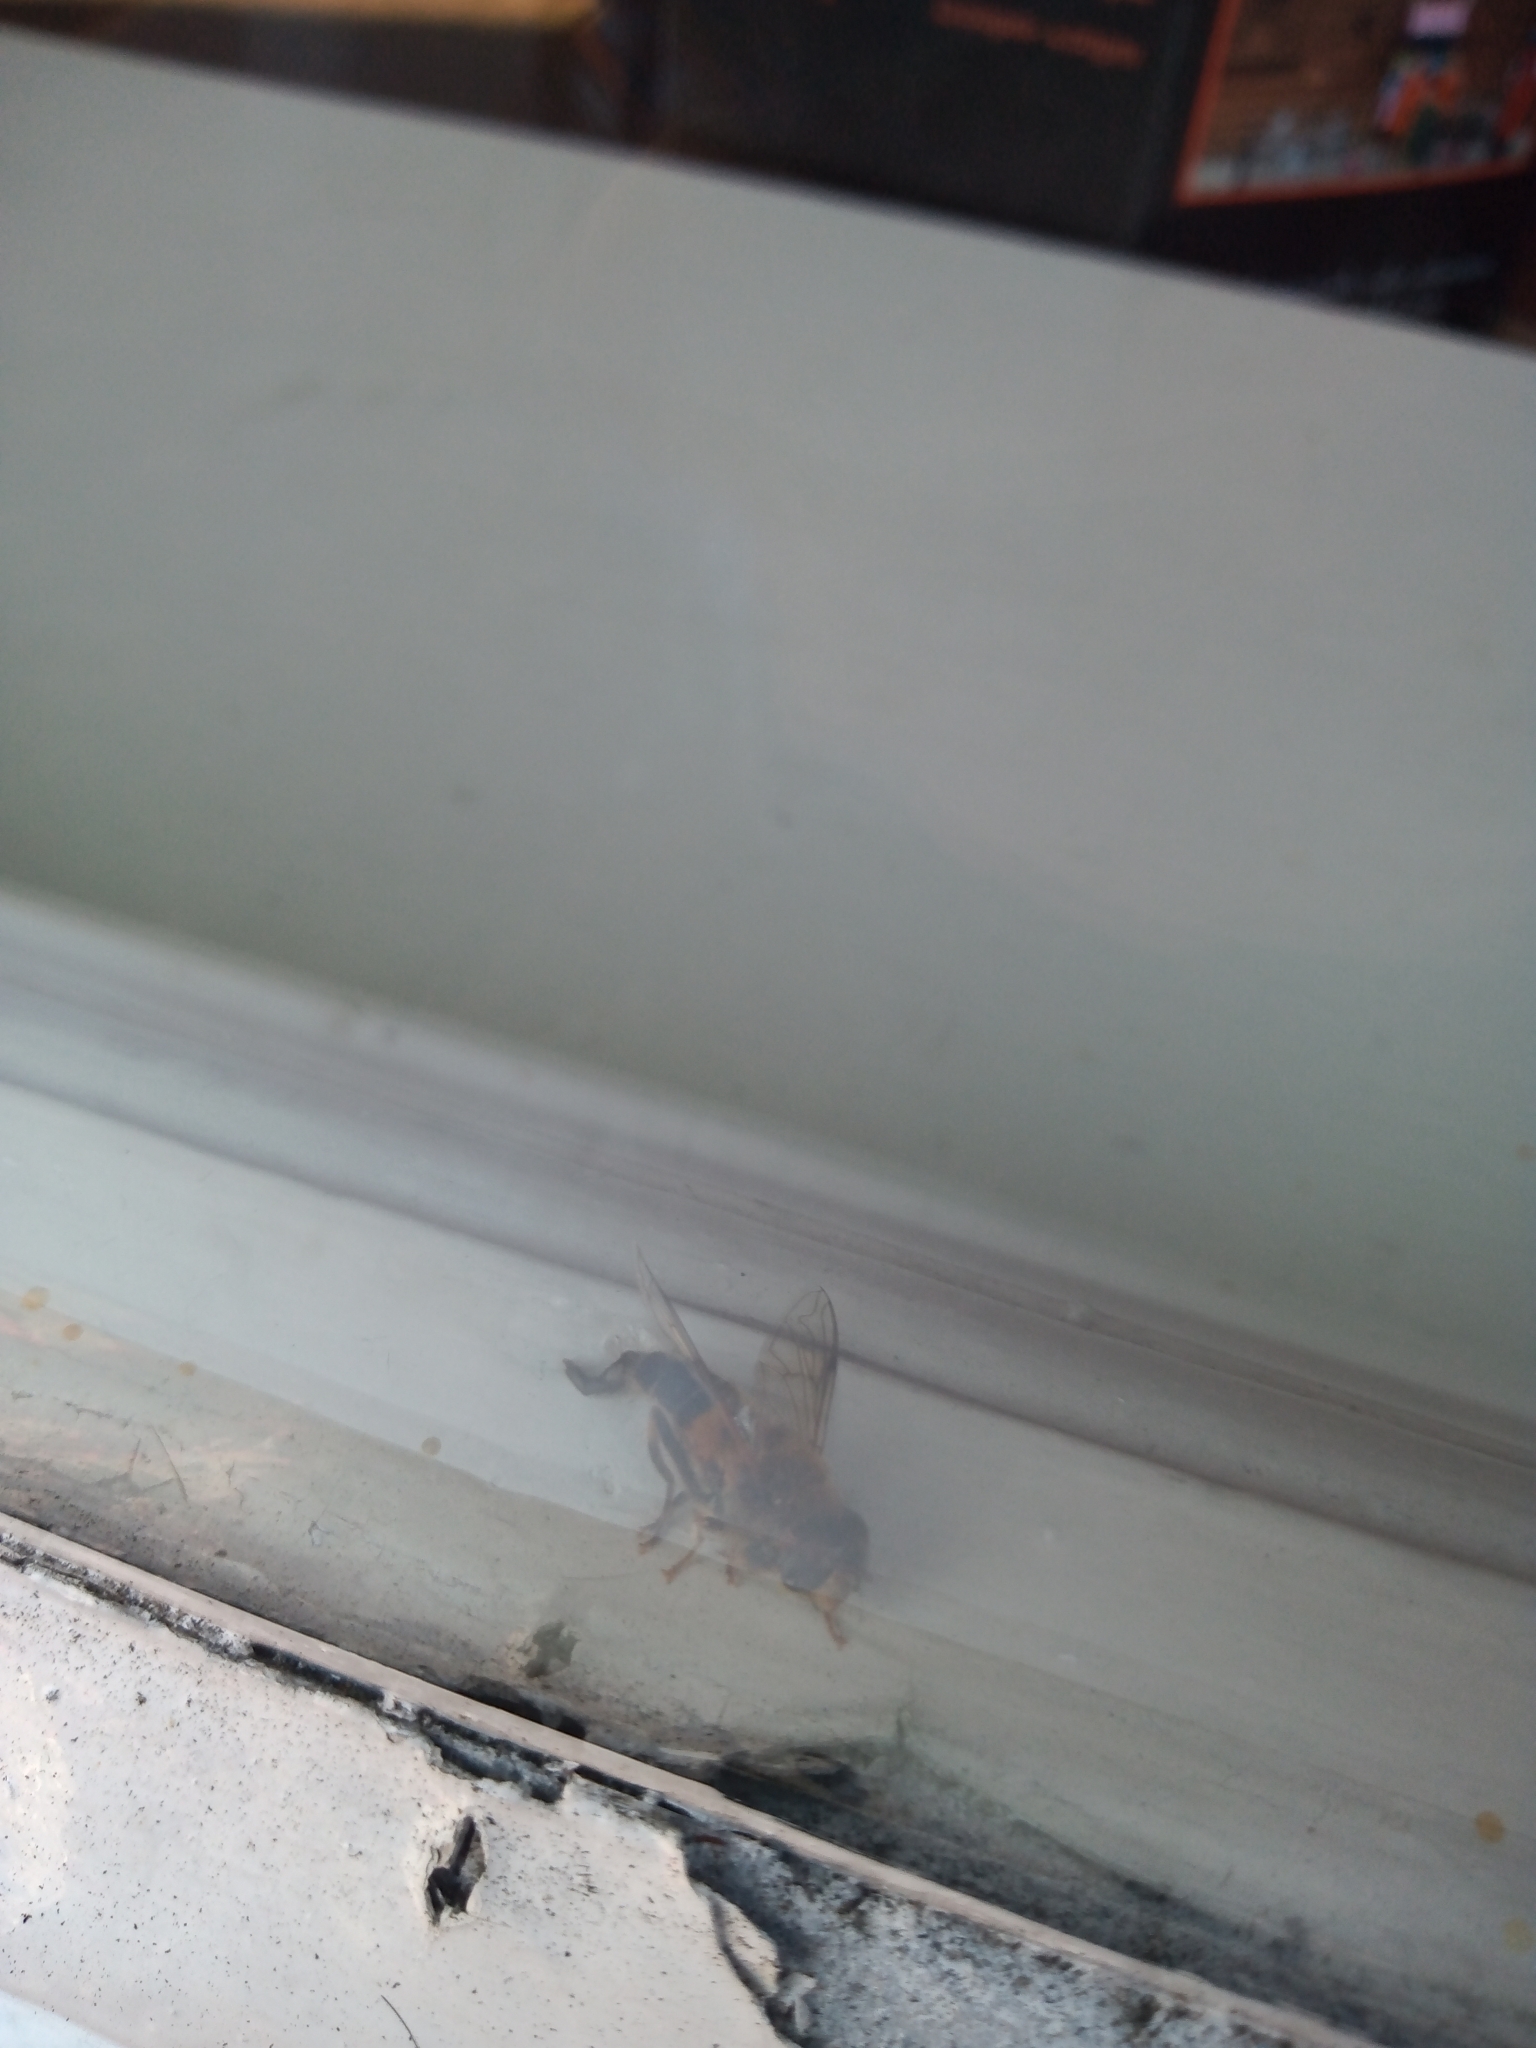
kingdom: Animalia
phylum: Arthropoda
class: Insecta
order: Diptera
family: Syrphidae
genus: Eristalis
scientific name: Eristalis pertinax
